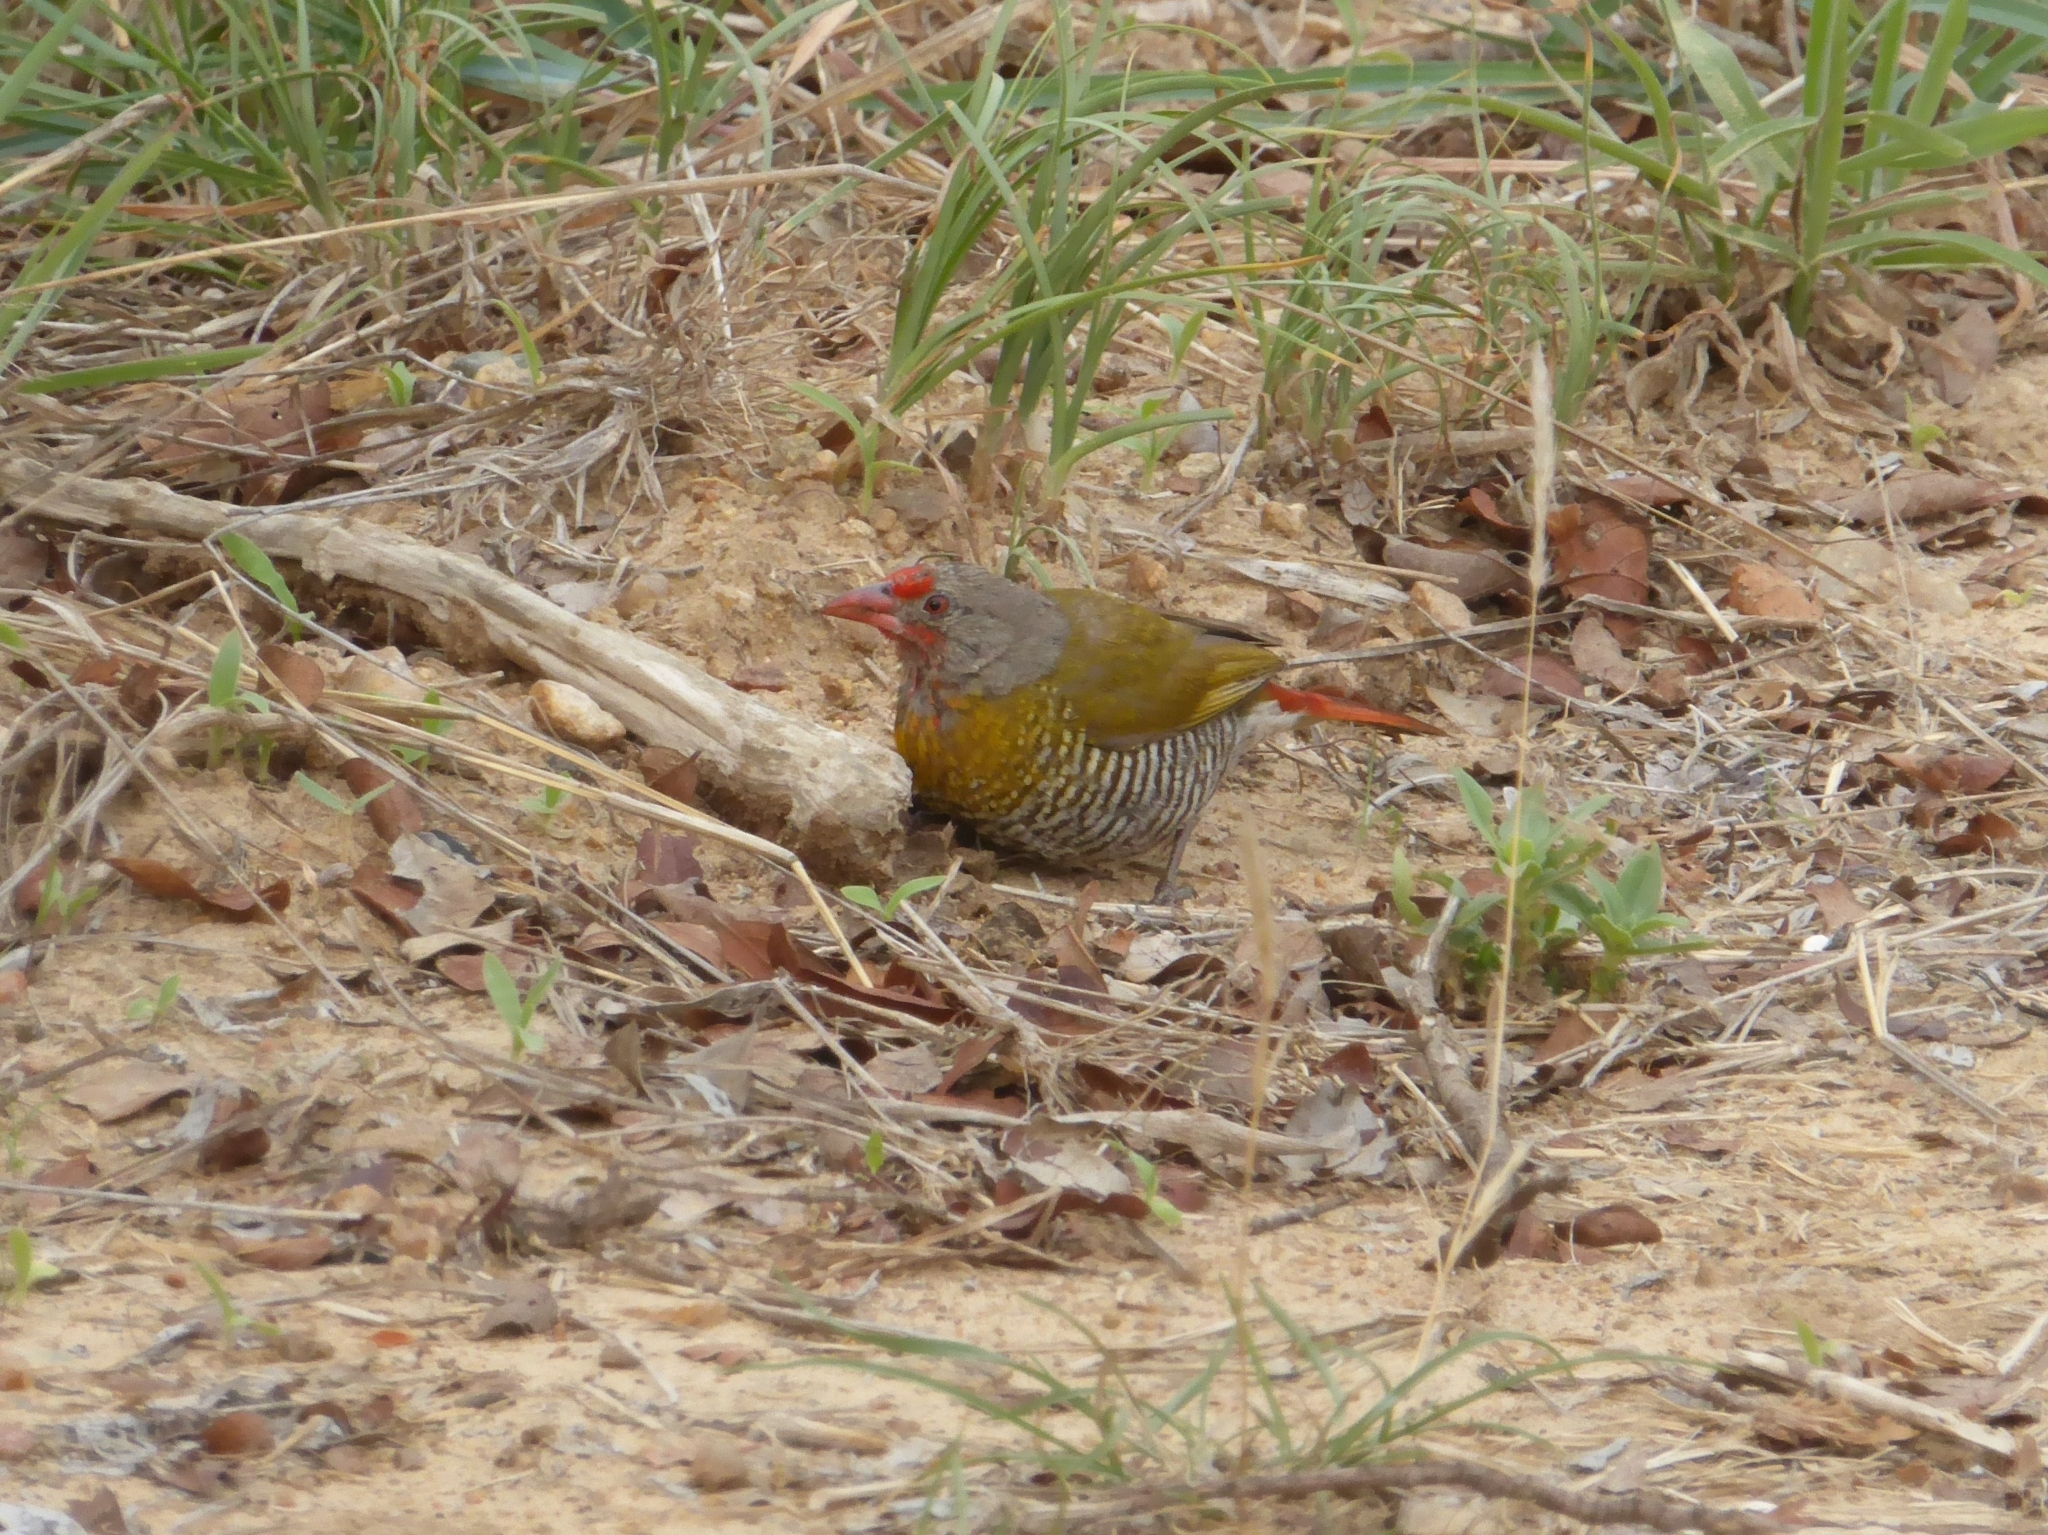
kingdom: Animalia
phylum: Chordata
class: Aves
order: Passeriformes
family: Estrildidae
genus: Pytilia
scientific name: Pytilia melba
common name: Green-winged pytilia
